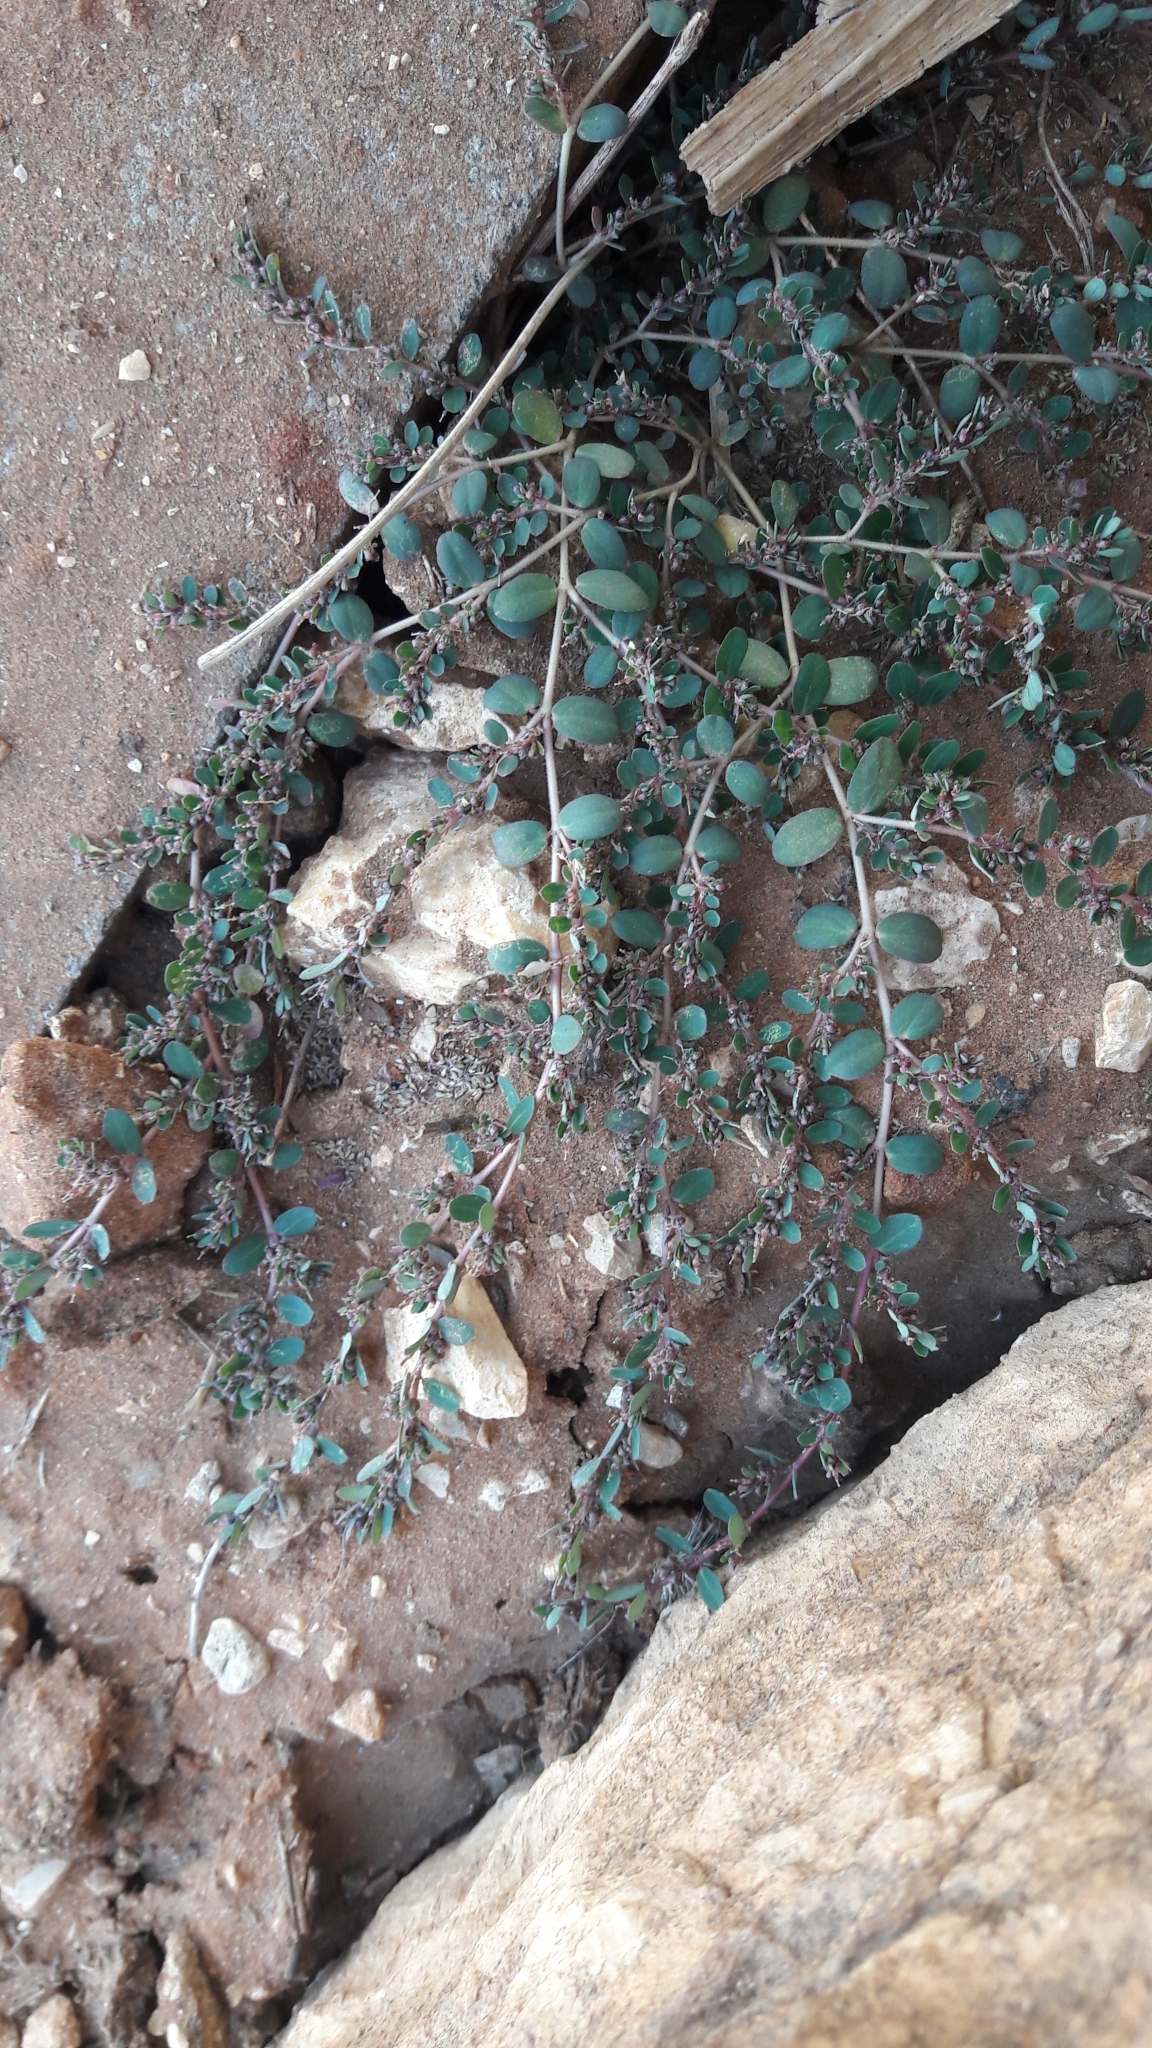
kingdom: Plantae
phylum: Tracheophyta
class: Magnoliopsida
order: Malpighiales
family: Euphorbiaceae
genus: Euphorbia
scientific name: Euphorbia prostrata
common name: Prostrate sandmat
